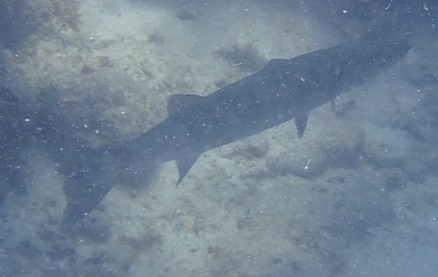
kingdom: Animalia
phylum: Chordata
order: Perciformes
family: Sphyraenidae
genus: Sphyraena
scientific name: Sphyraena barracuda
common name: Great barracuda
